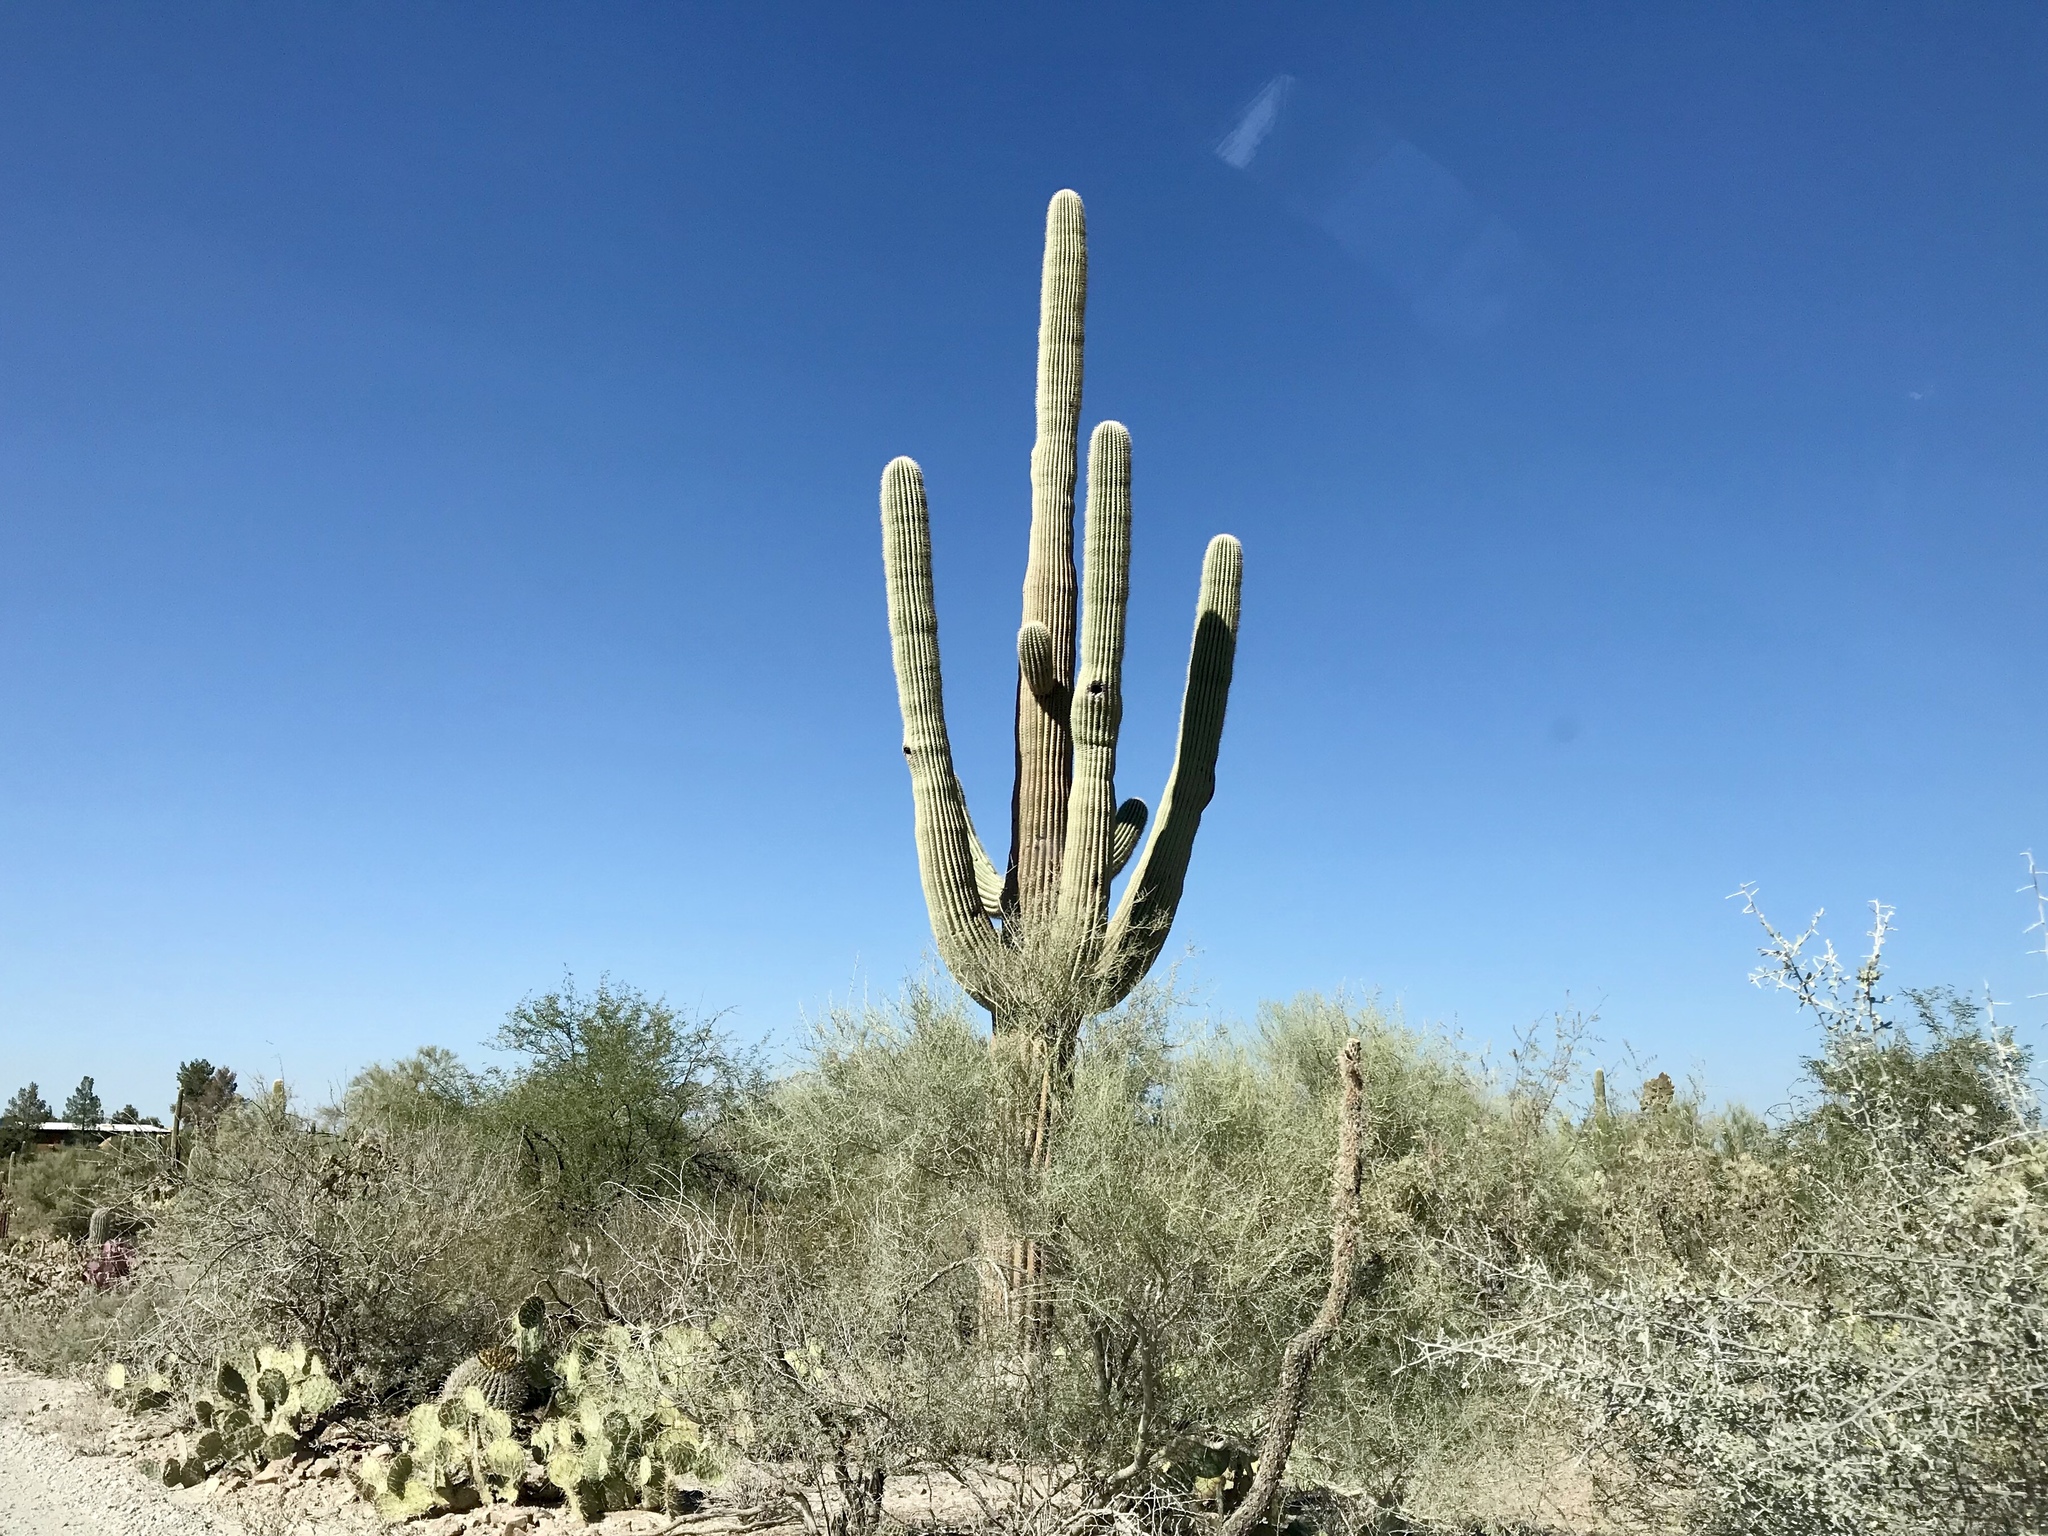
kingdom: Plantae
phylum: Tracheophyta
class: Magnoliopsida
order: Caryophyllales
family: Cactaceae
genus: Carnegiea
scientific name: Carnegiea gigantea
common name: Saguaro
